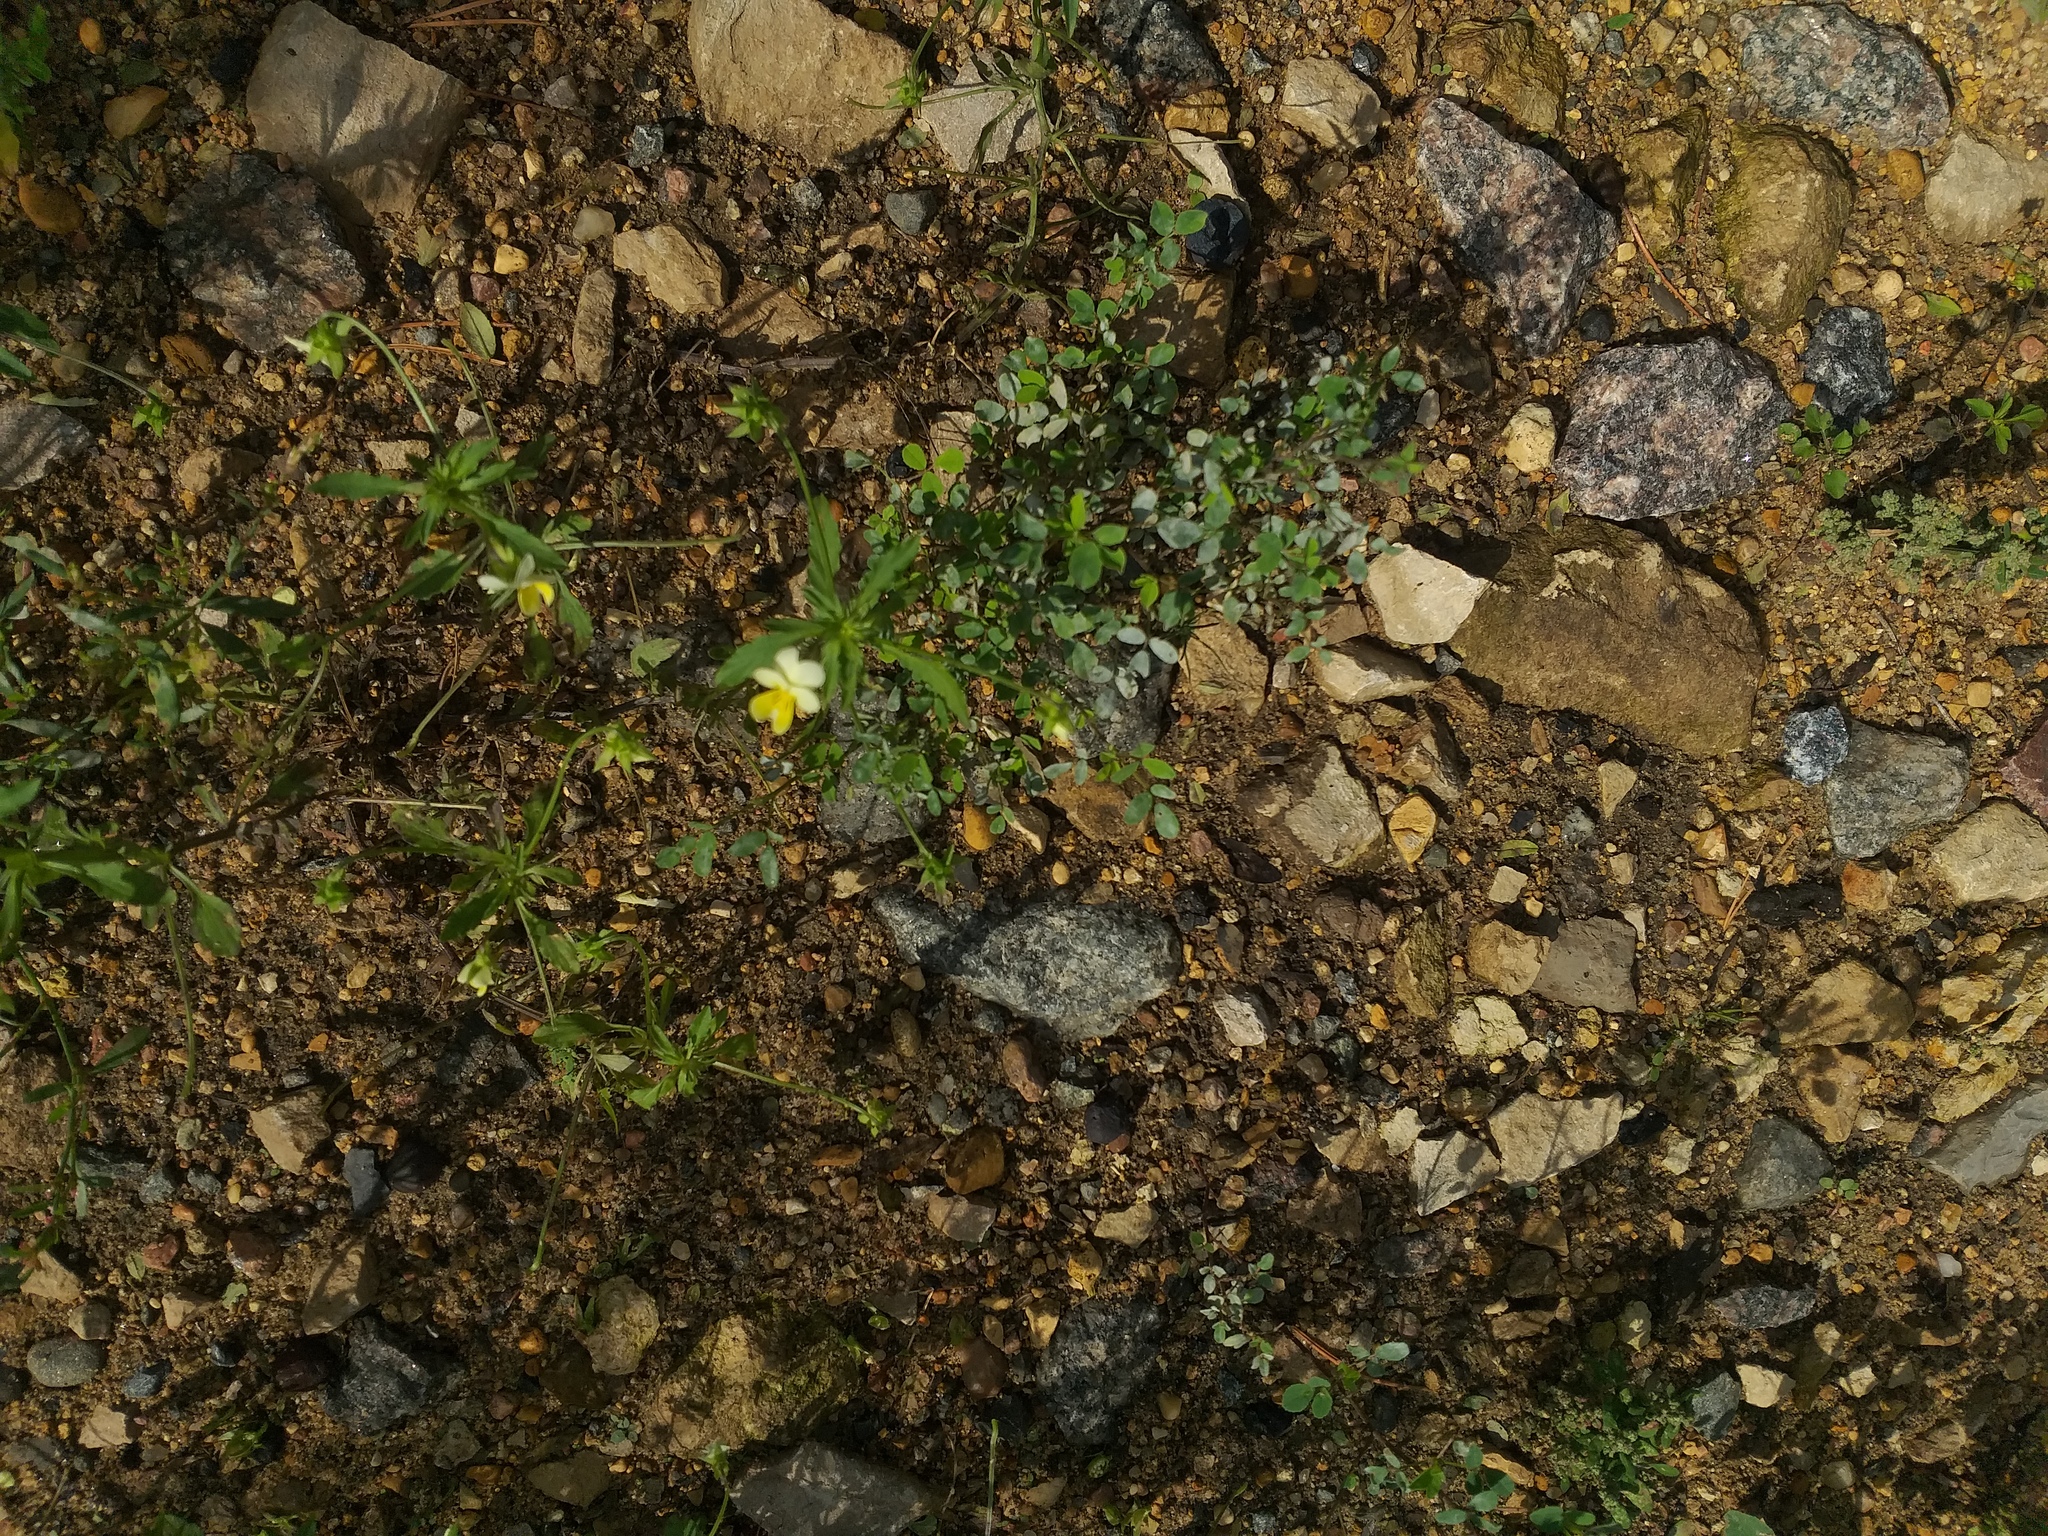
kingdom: Plantae
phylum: Tracheophyta
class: Magnoliopsida
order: Malpighiales
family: Violaceae
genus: Viola
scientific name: Viola arvensis
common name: Field pansy
